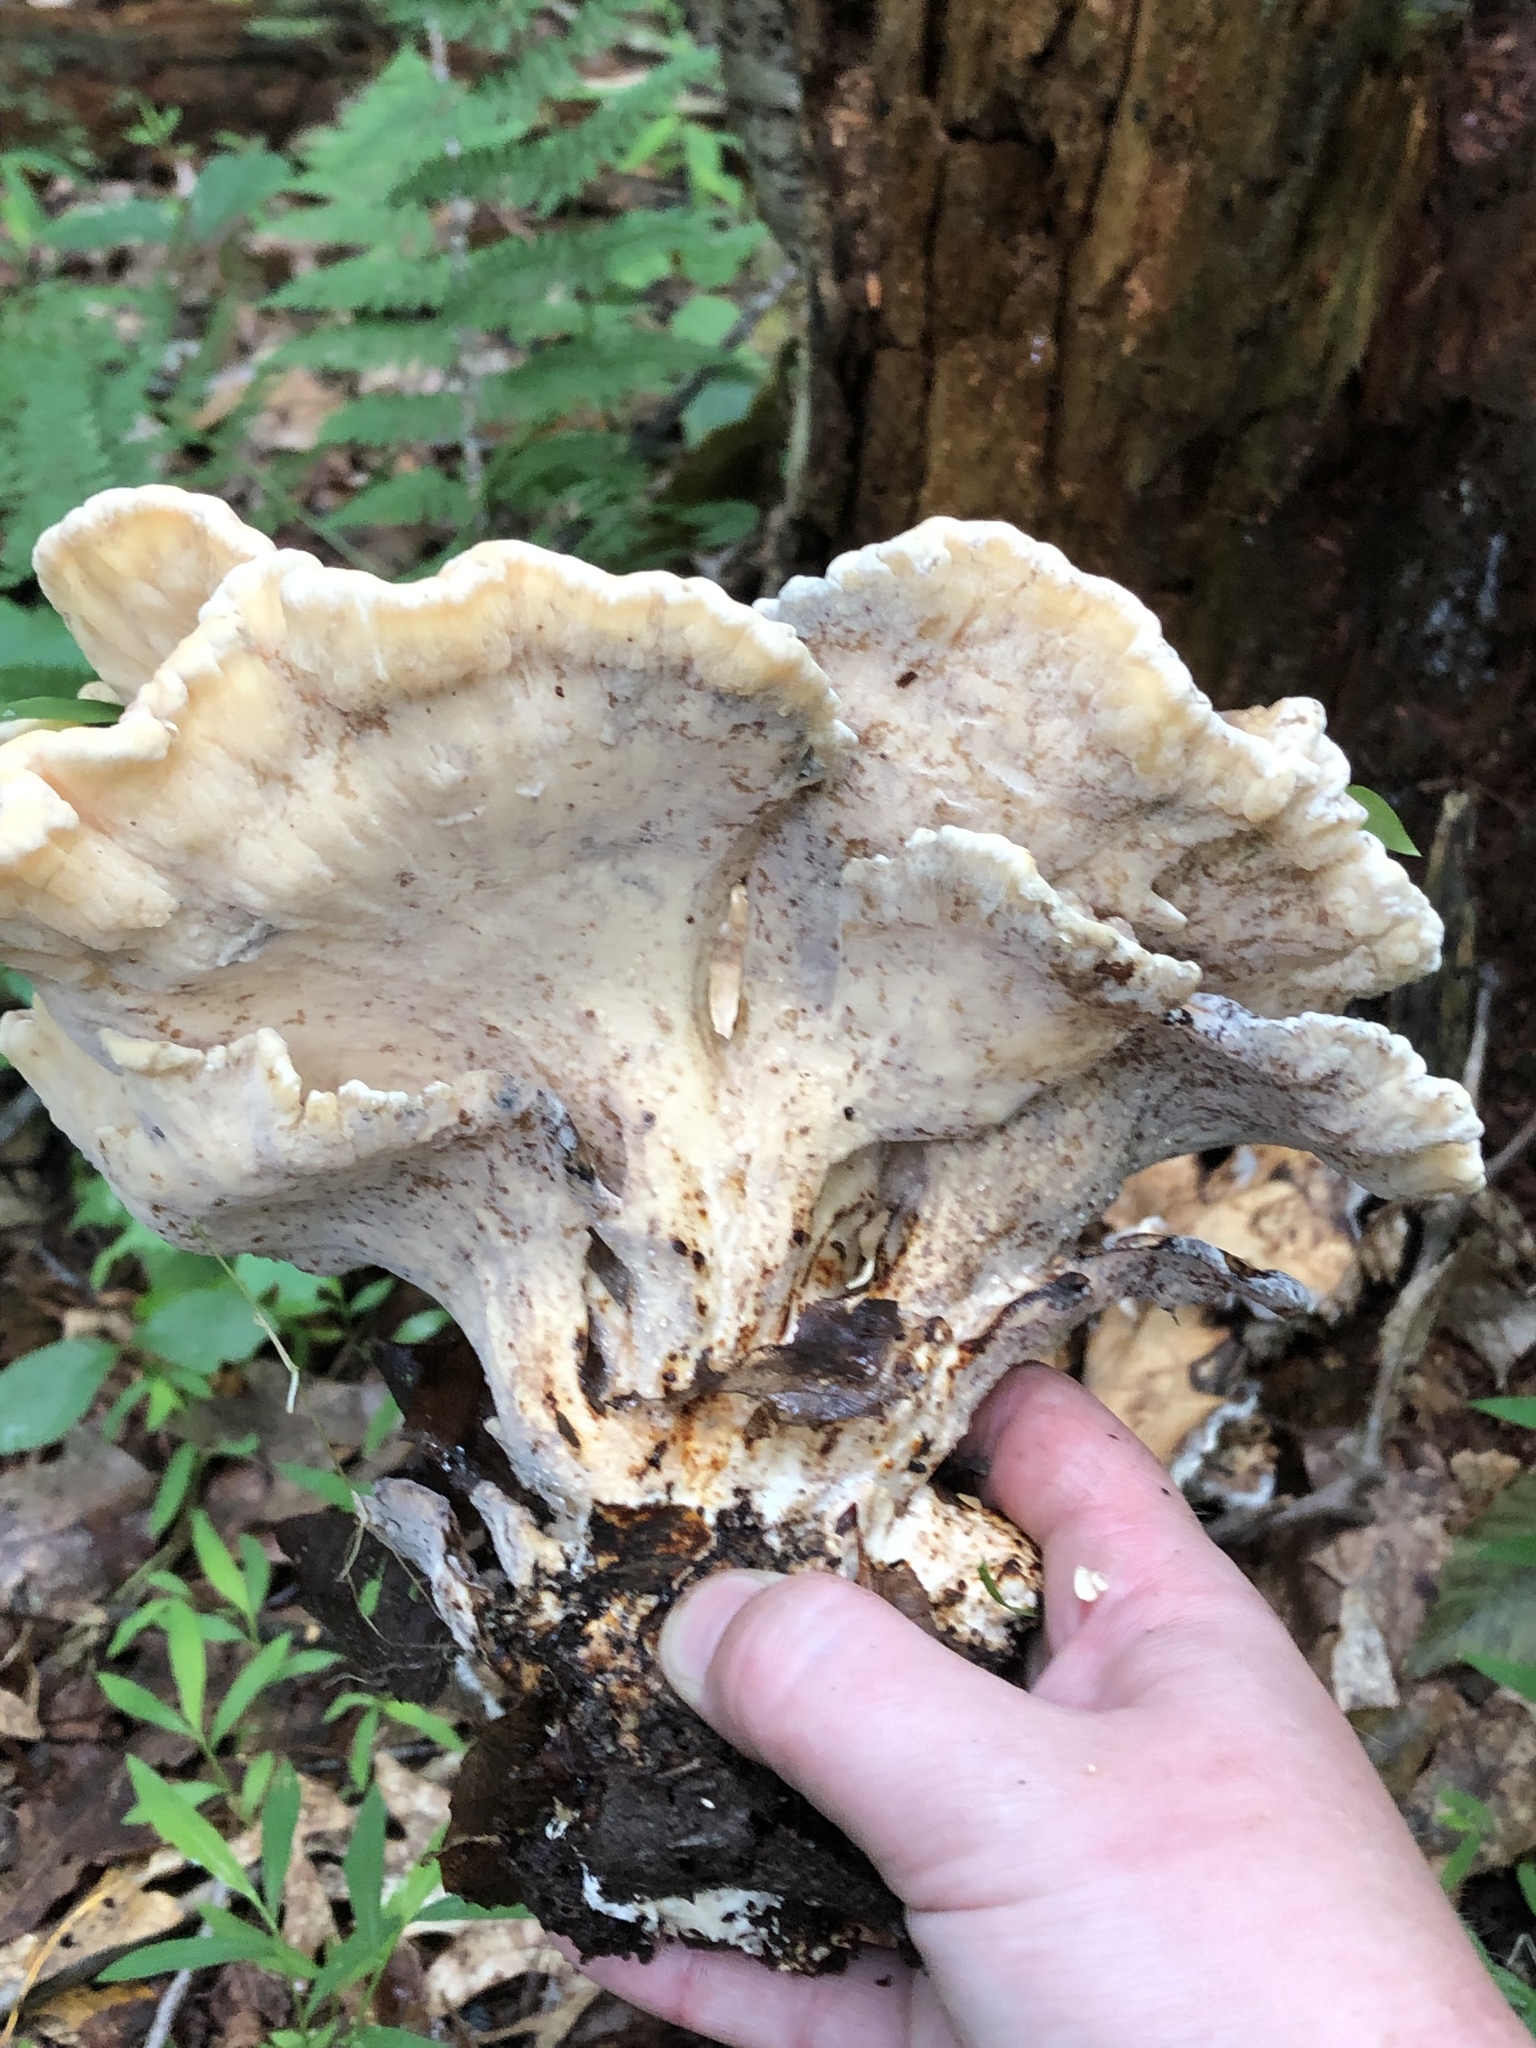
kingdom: Fungi
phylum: Basidiomycota
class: Agaricomycetes
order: Polyporales
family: Meripilaceae
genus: Meripilus
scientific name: Meripilus sumstinei
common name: Black-staining polypore
